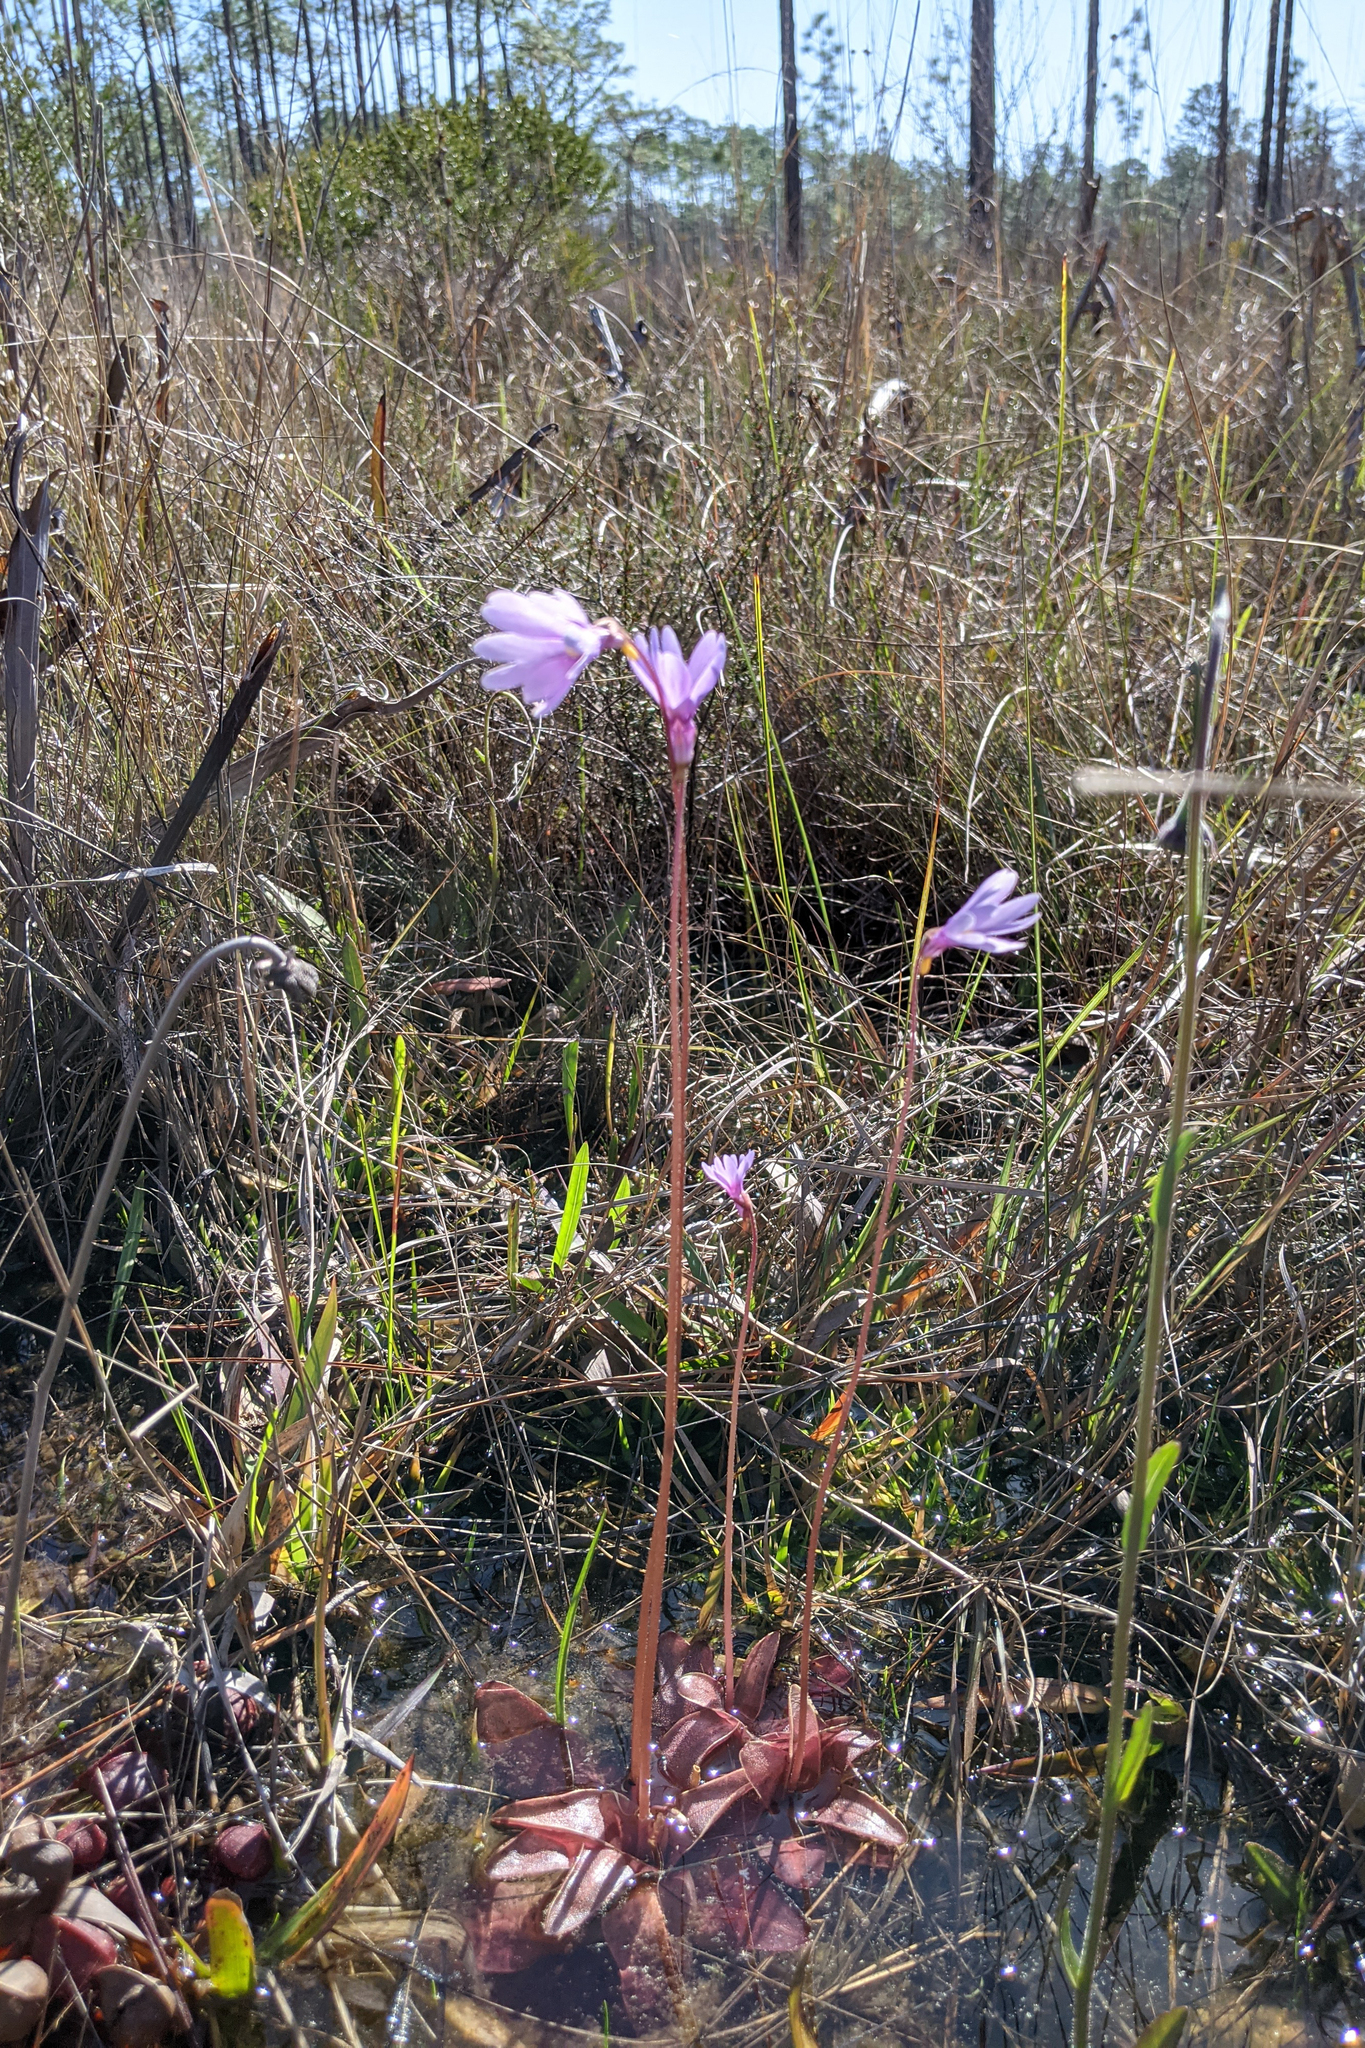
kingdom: Plantae
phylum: Tracheophyta
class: Magnoliopsida
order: Lamiales
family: Lentibulariaceae
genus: Pinguicula
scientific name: Pinguicula planifolia
